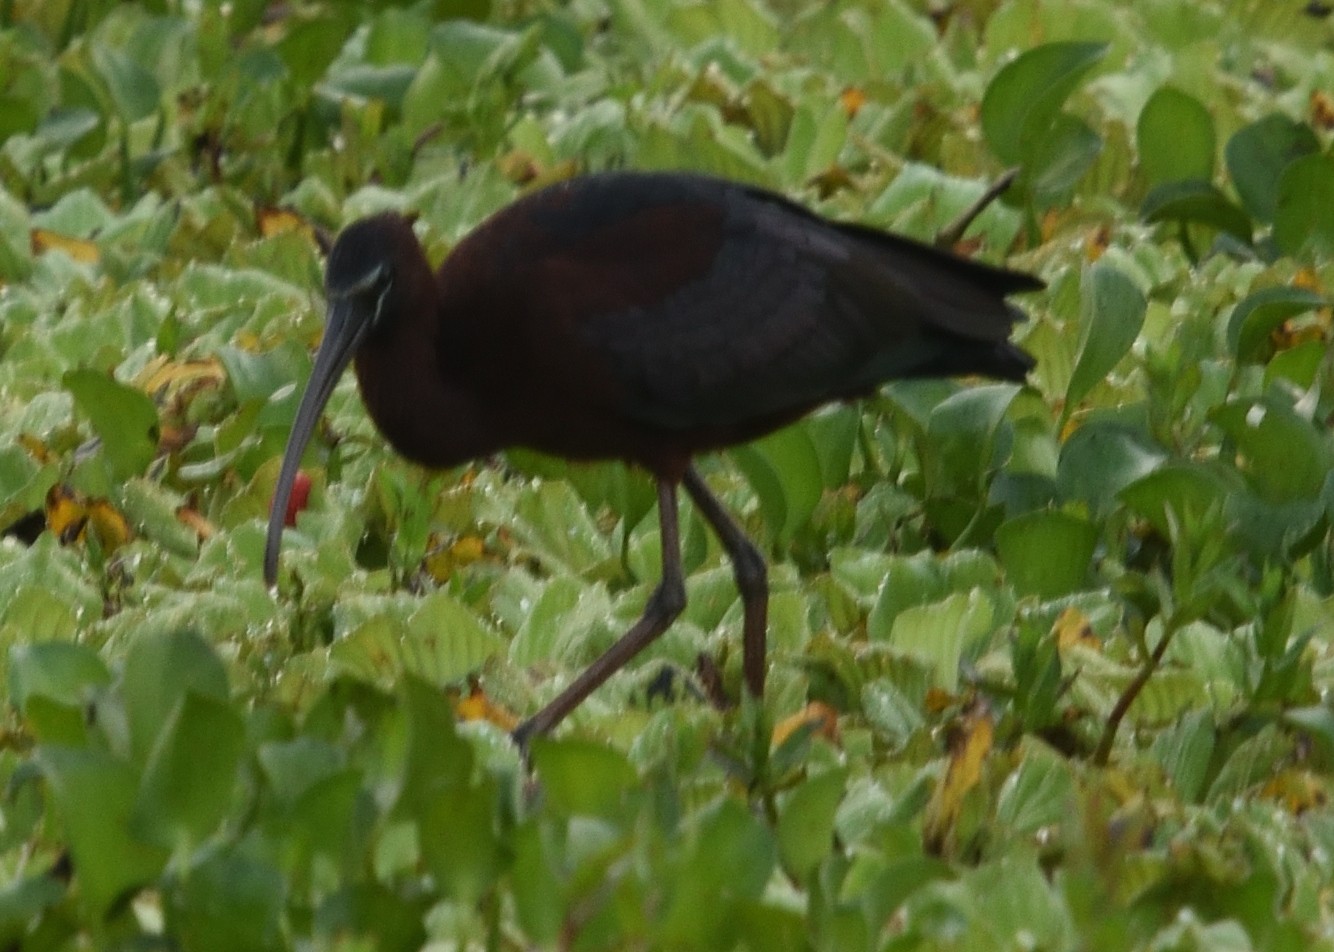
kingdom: Animalia
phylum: Chordata
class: Aves
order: Pelecaniformes
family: Threskiornithidae
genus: Plegadis
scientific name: Plegadis falcinellus
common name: Glossy ibis
